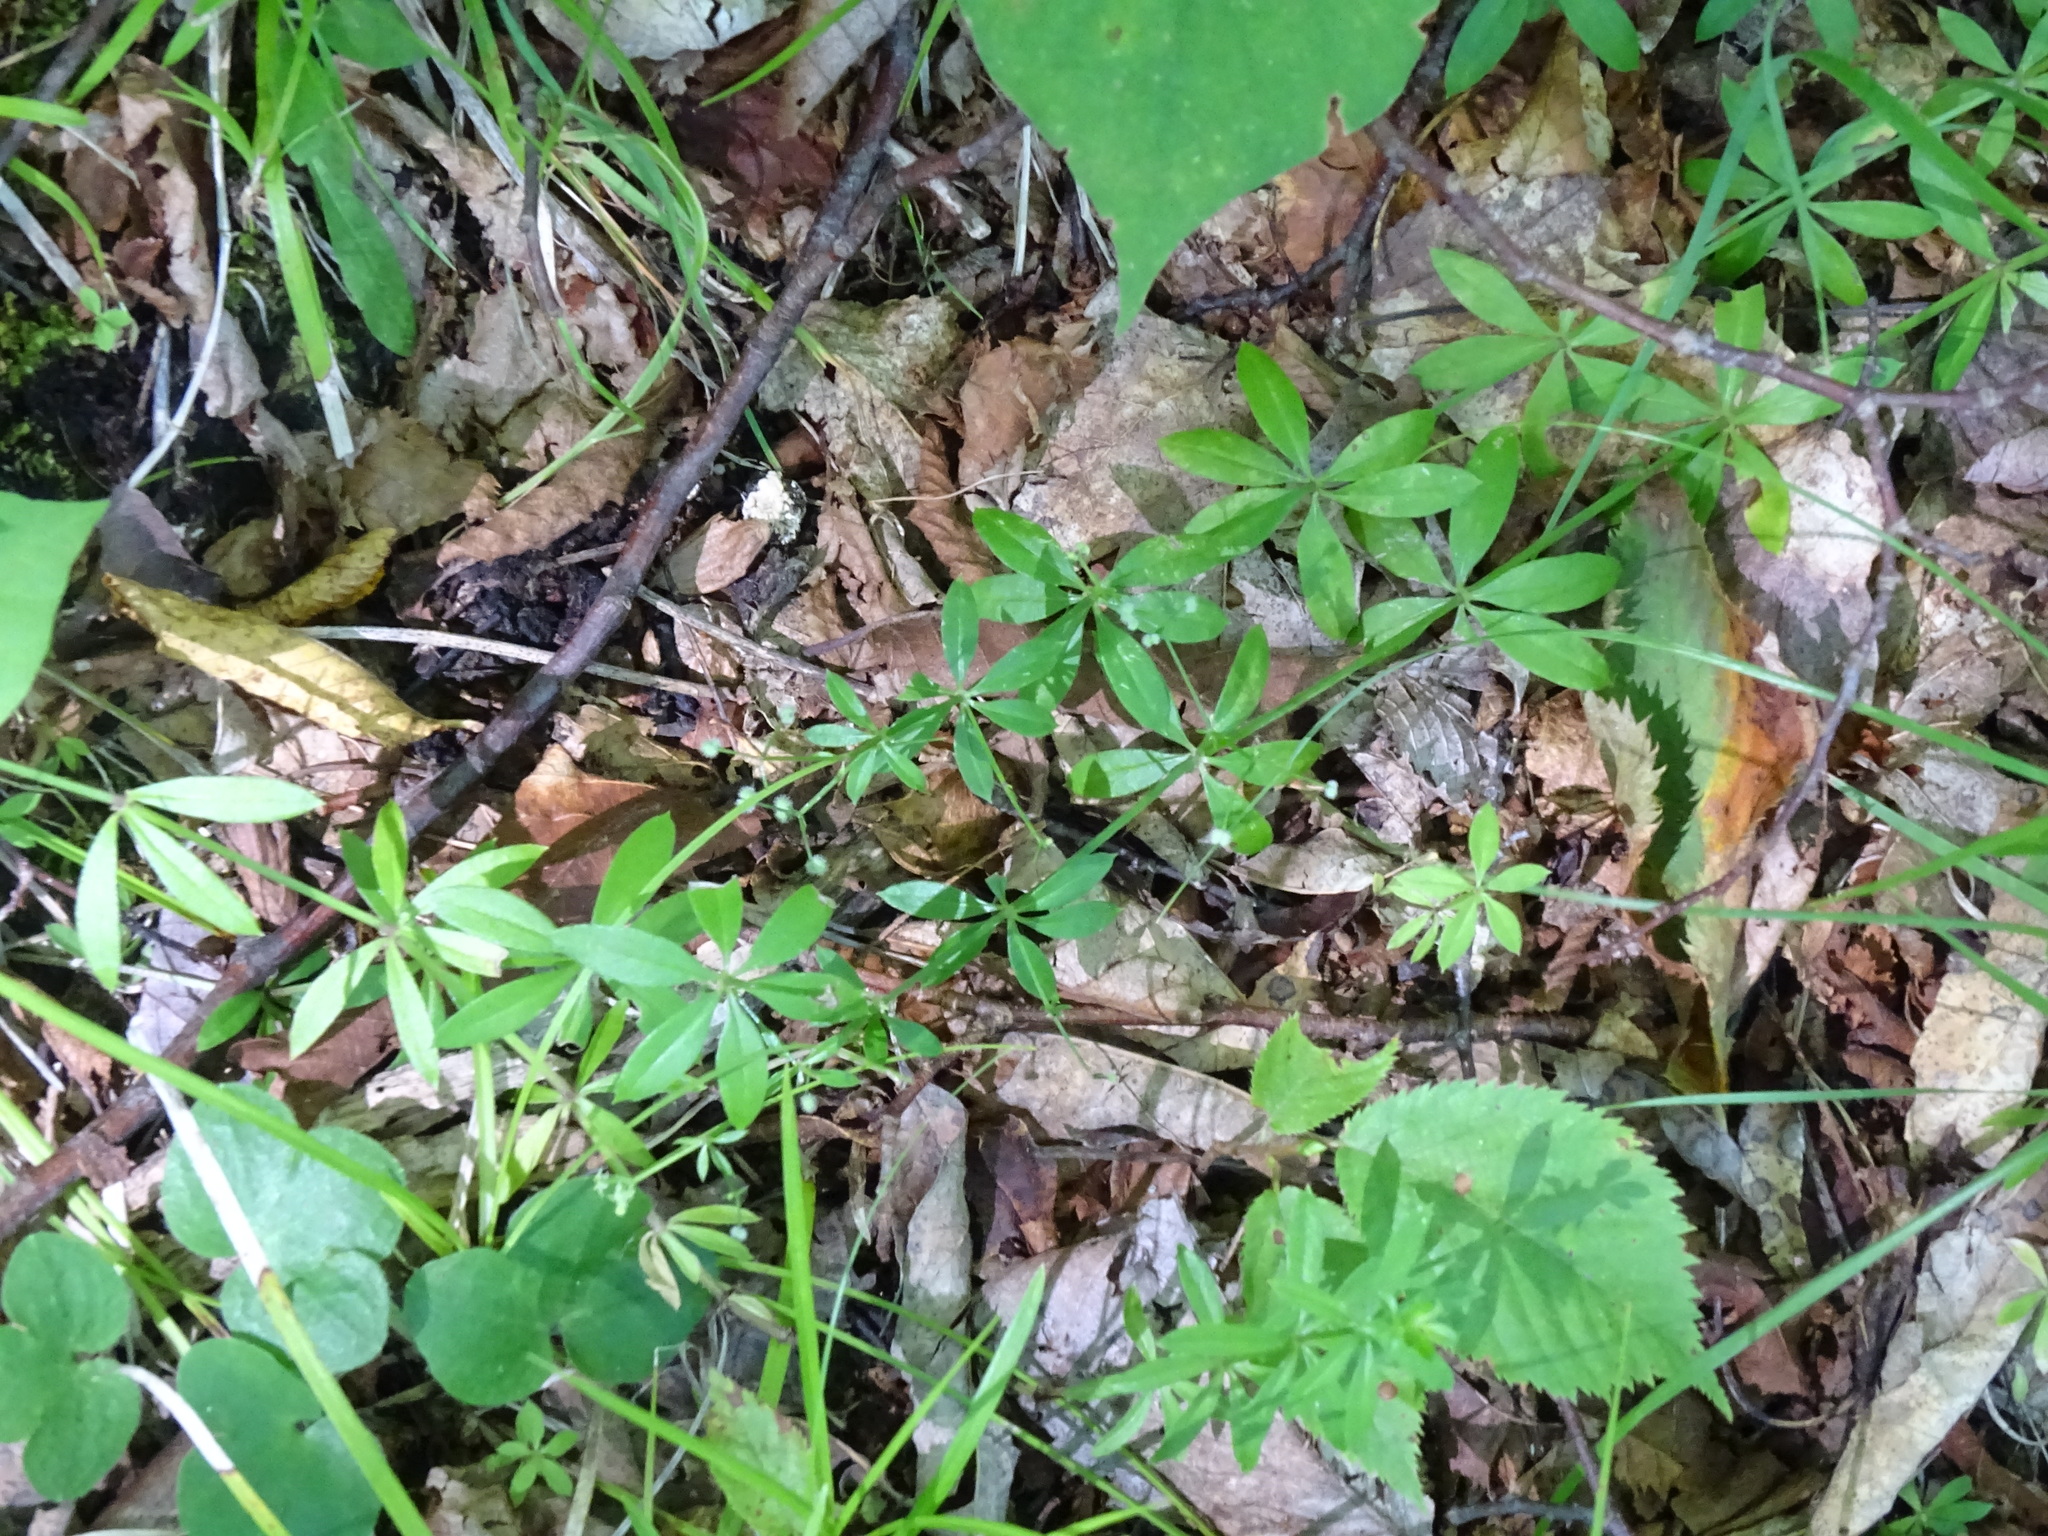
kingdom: Plantae
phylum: Tracheophyta
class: Magnoliopsida
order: Gentianales
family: Rubiaceae
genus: Galium
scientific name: Galium triflorum
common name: Fragrant bedstraw
